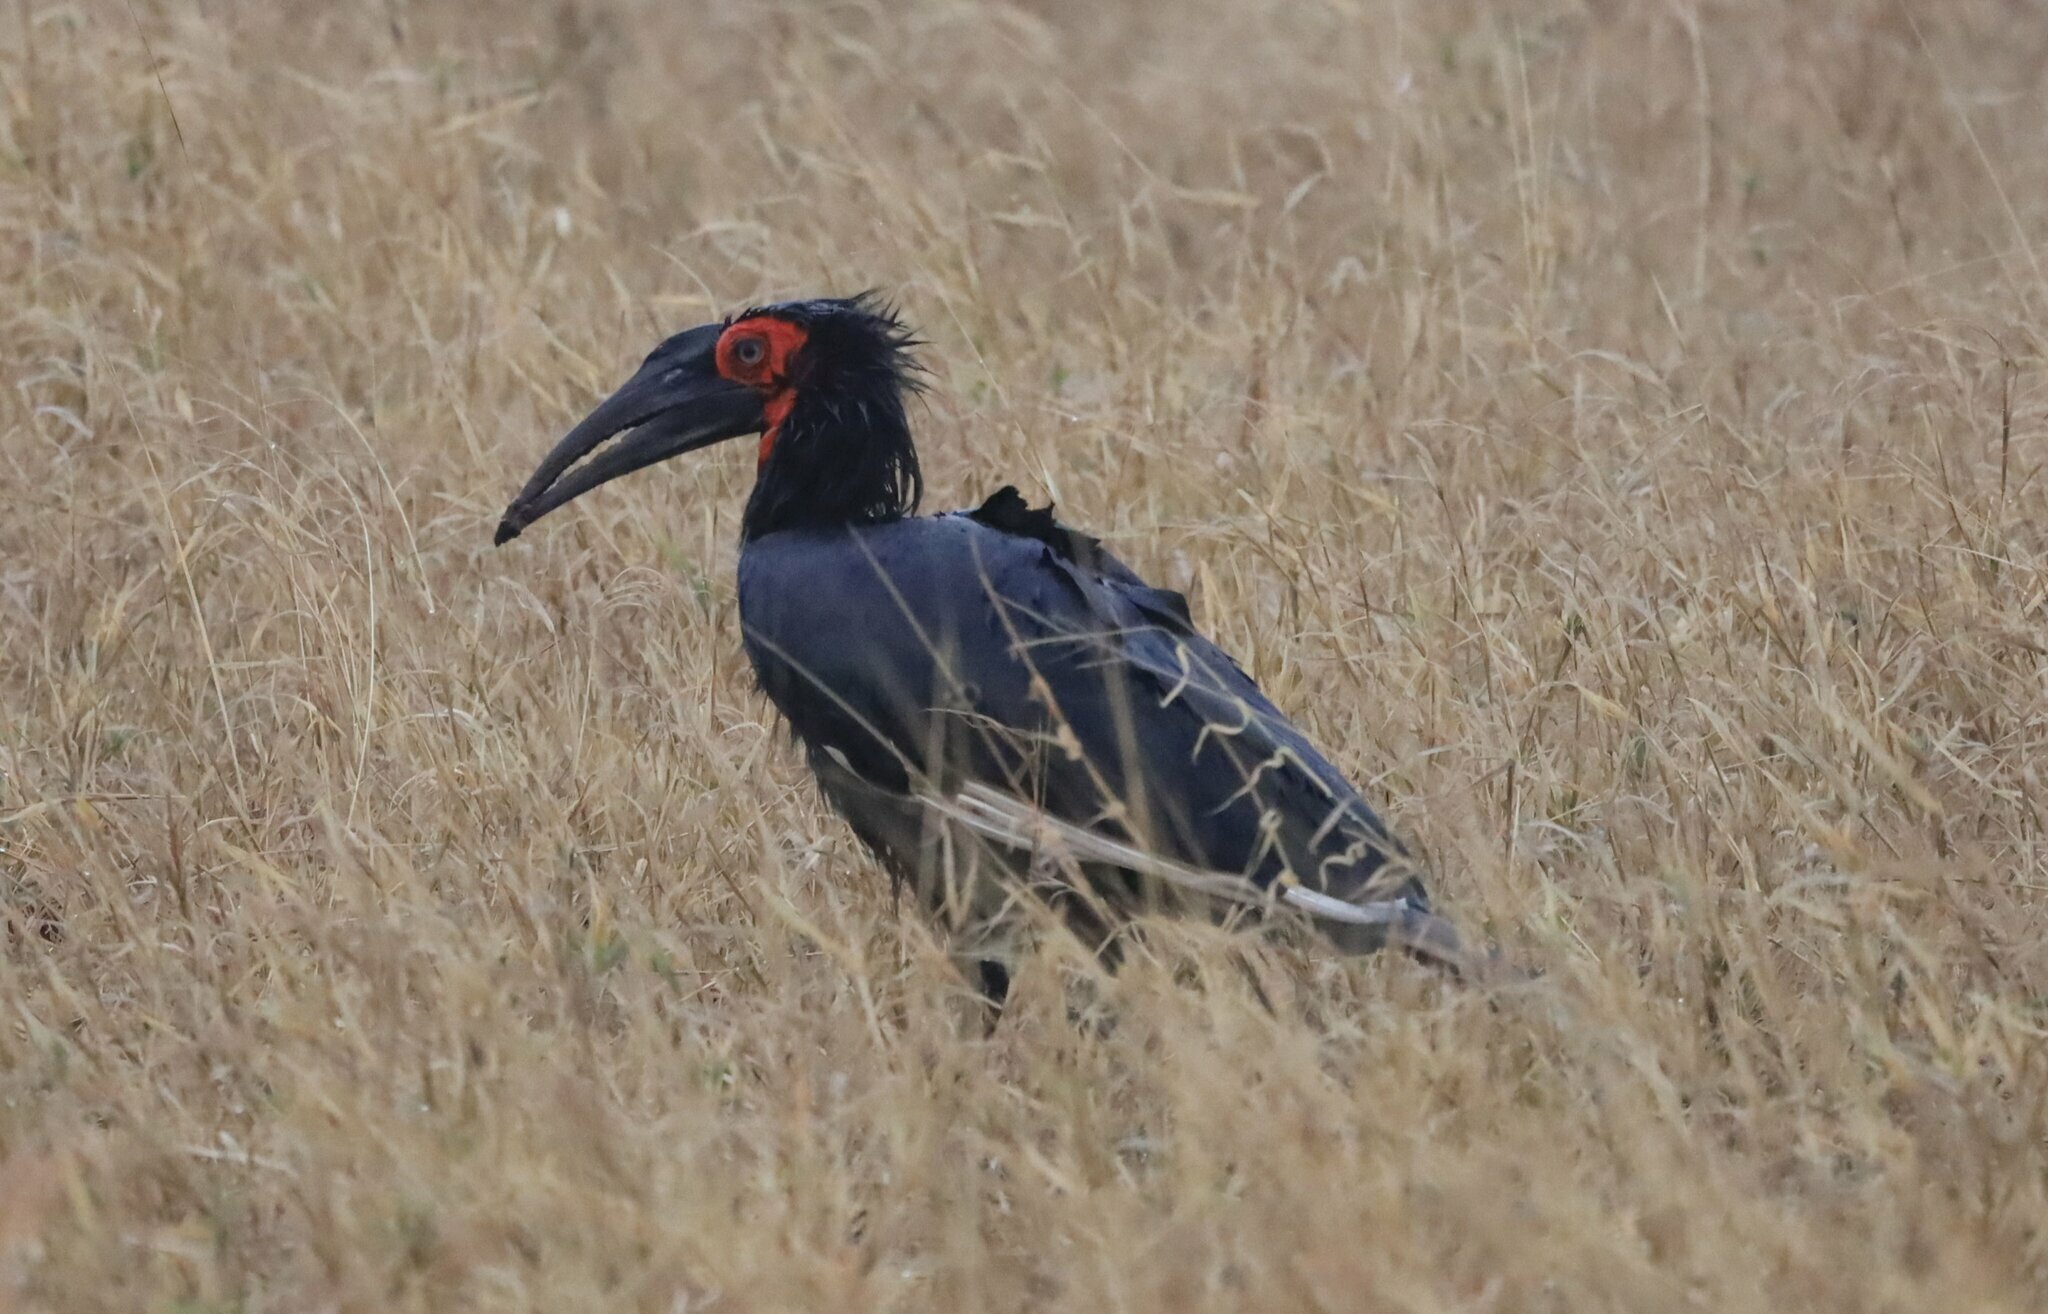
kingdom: Animalia
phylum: Chordata
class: Aves
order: Bucerotiformes
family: Bucorvidae
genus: Bucorvus
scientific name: Bucorvus leadbeateri
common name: Southern ground-hornbill
